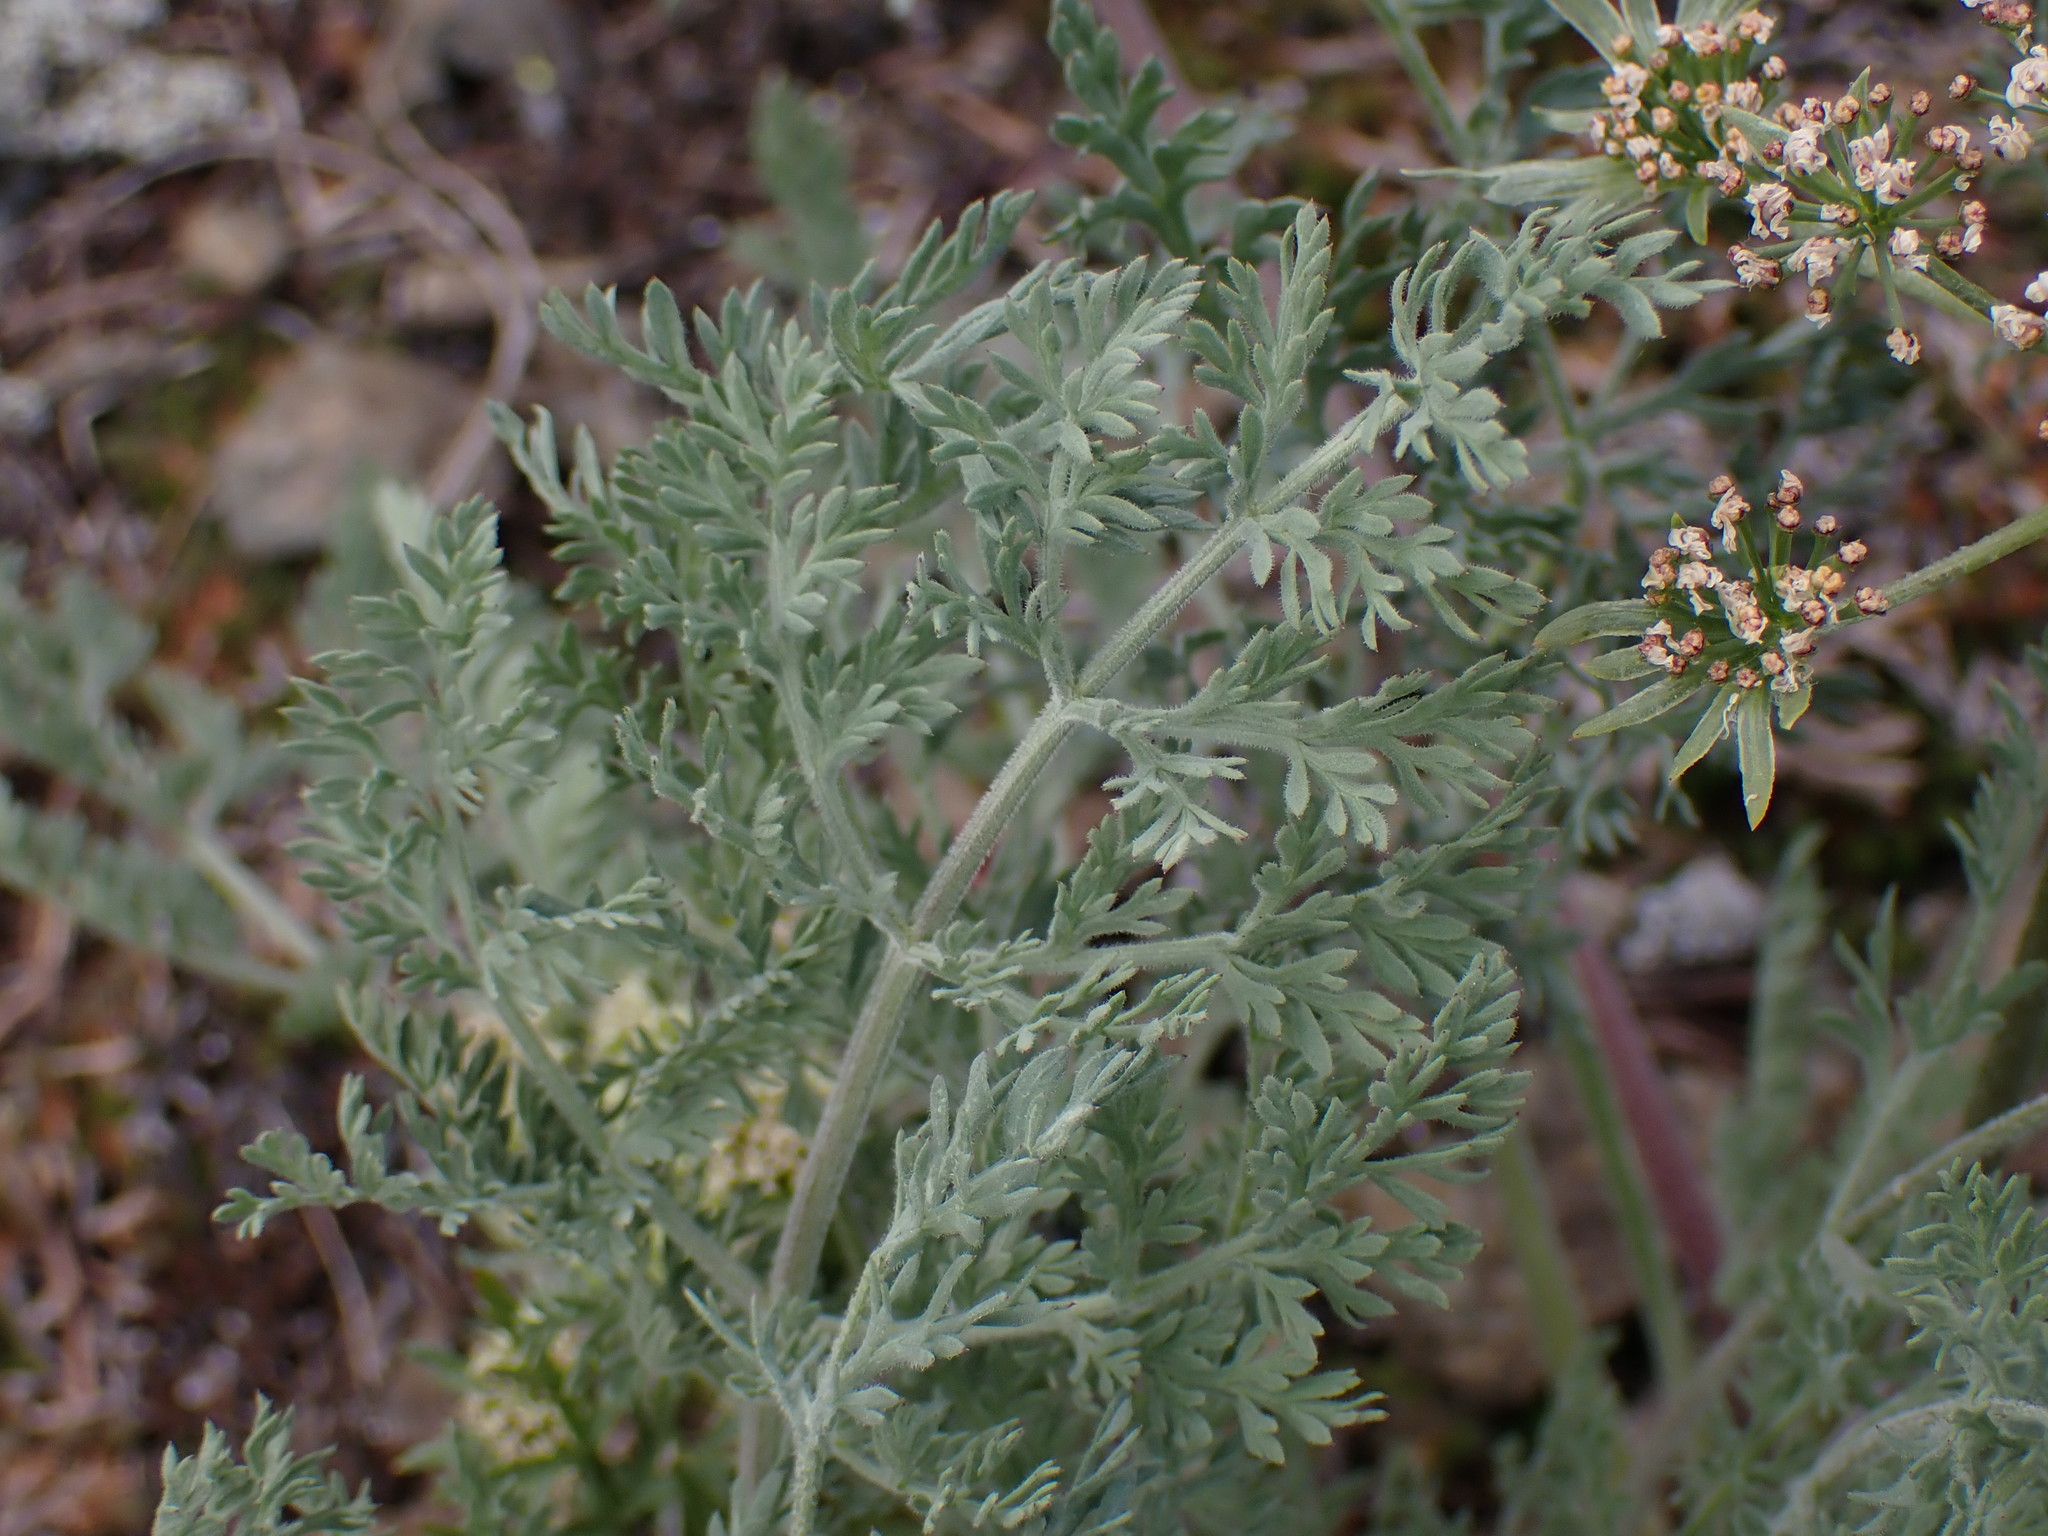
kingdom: Plantae
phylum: Tracheophyta
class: Magnoliopsida
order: Apiales
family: Apiaceae
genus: Lomatium
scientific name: Lomatium macrocarpum
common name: Big-seed biscuitroot
